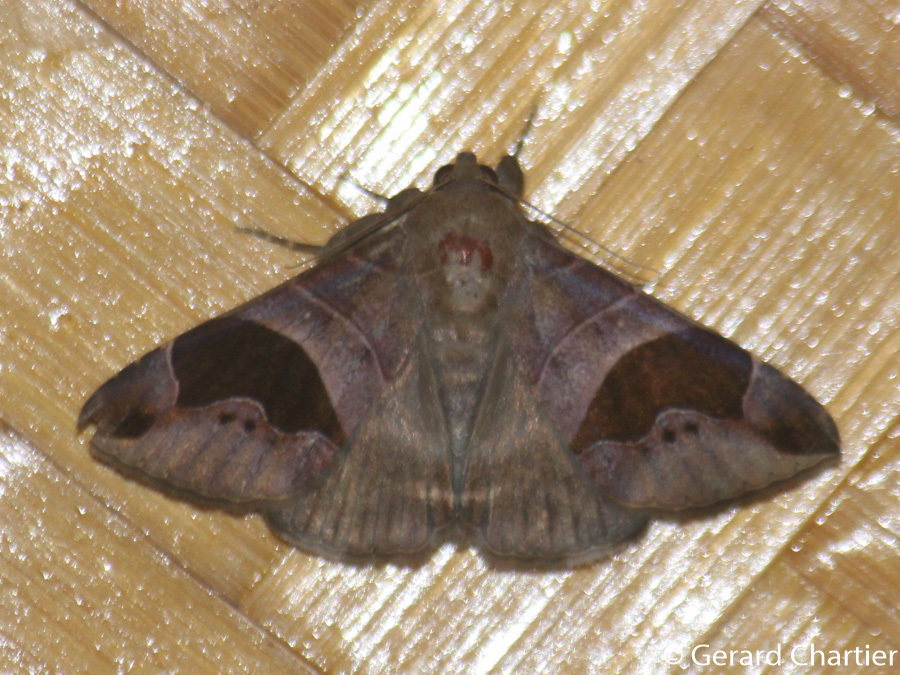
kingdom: Animalia
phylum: Arthropoda
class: Insecta
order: Lepidoptera
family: Erebidae
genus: Bastilla
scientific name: Bastilla joviana
